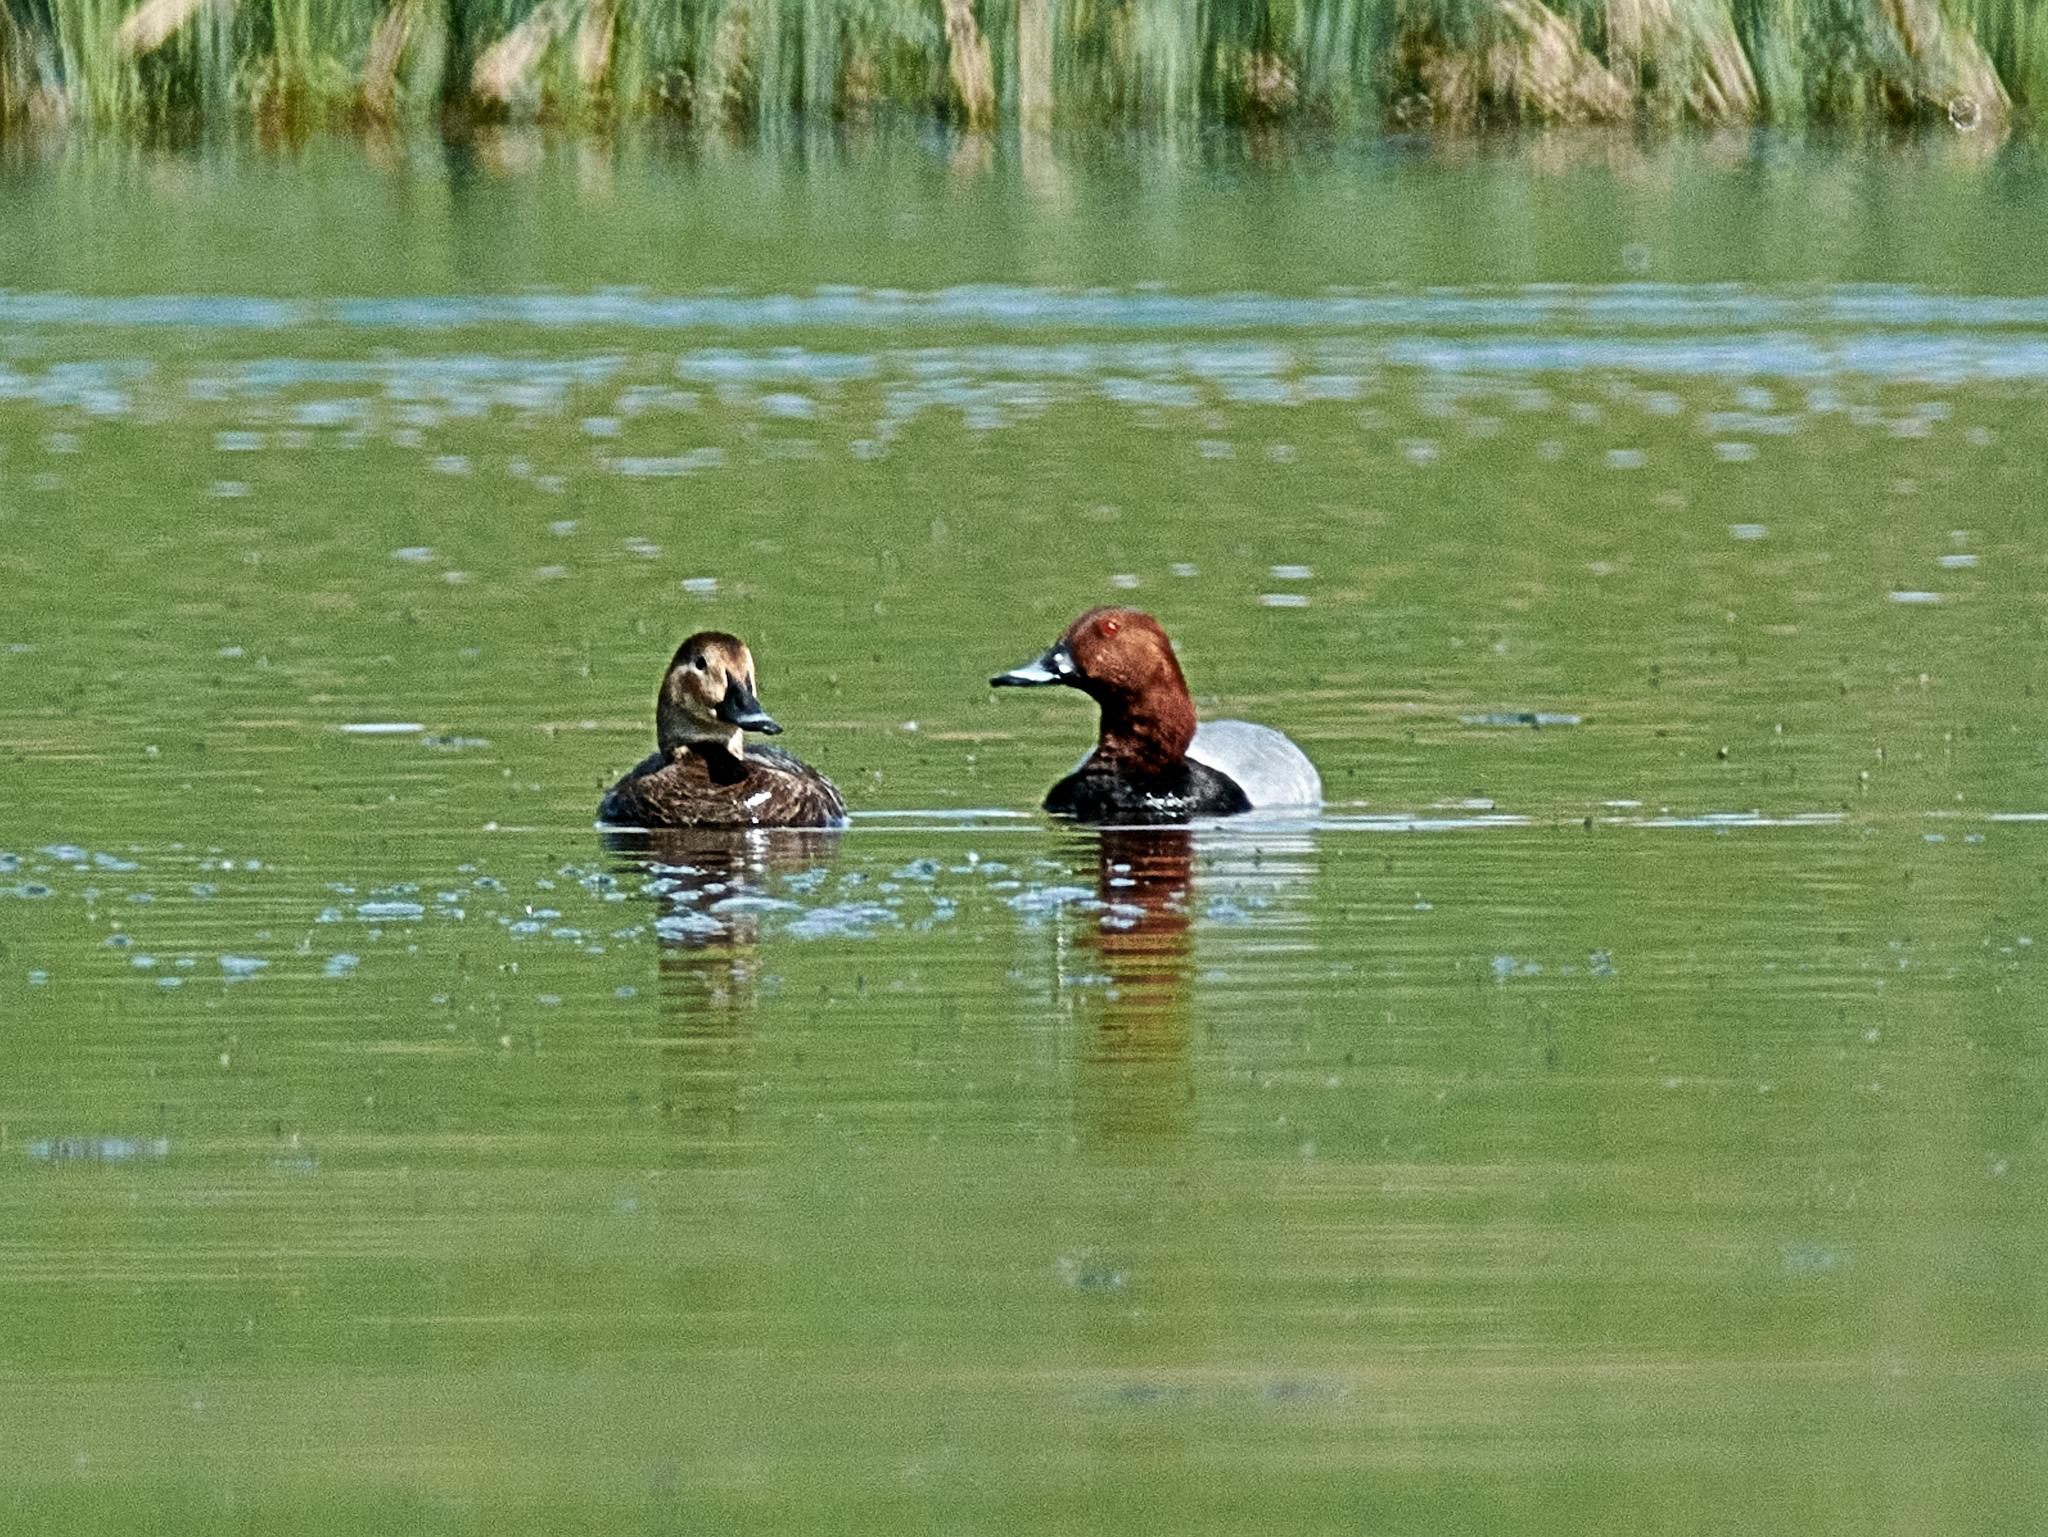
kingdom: Animalia
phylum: Chordata
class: Aves
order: Anseriformes
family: Anatidae
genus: Aythya
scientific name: Aythya ferina
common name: Common pochard
